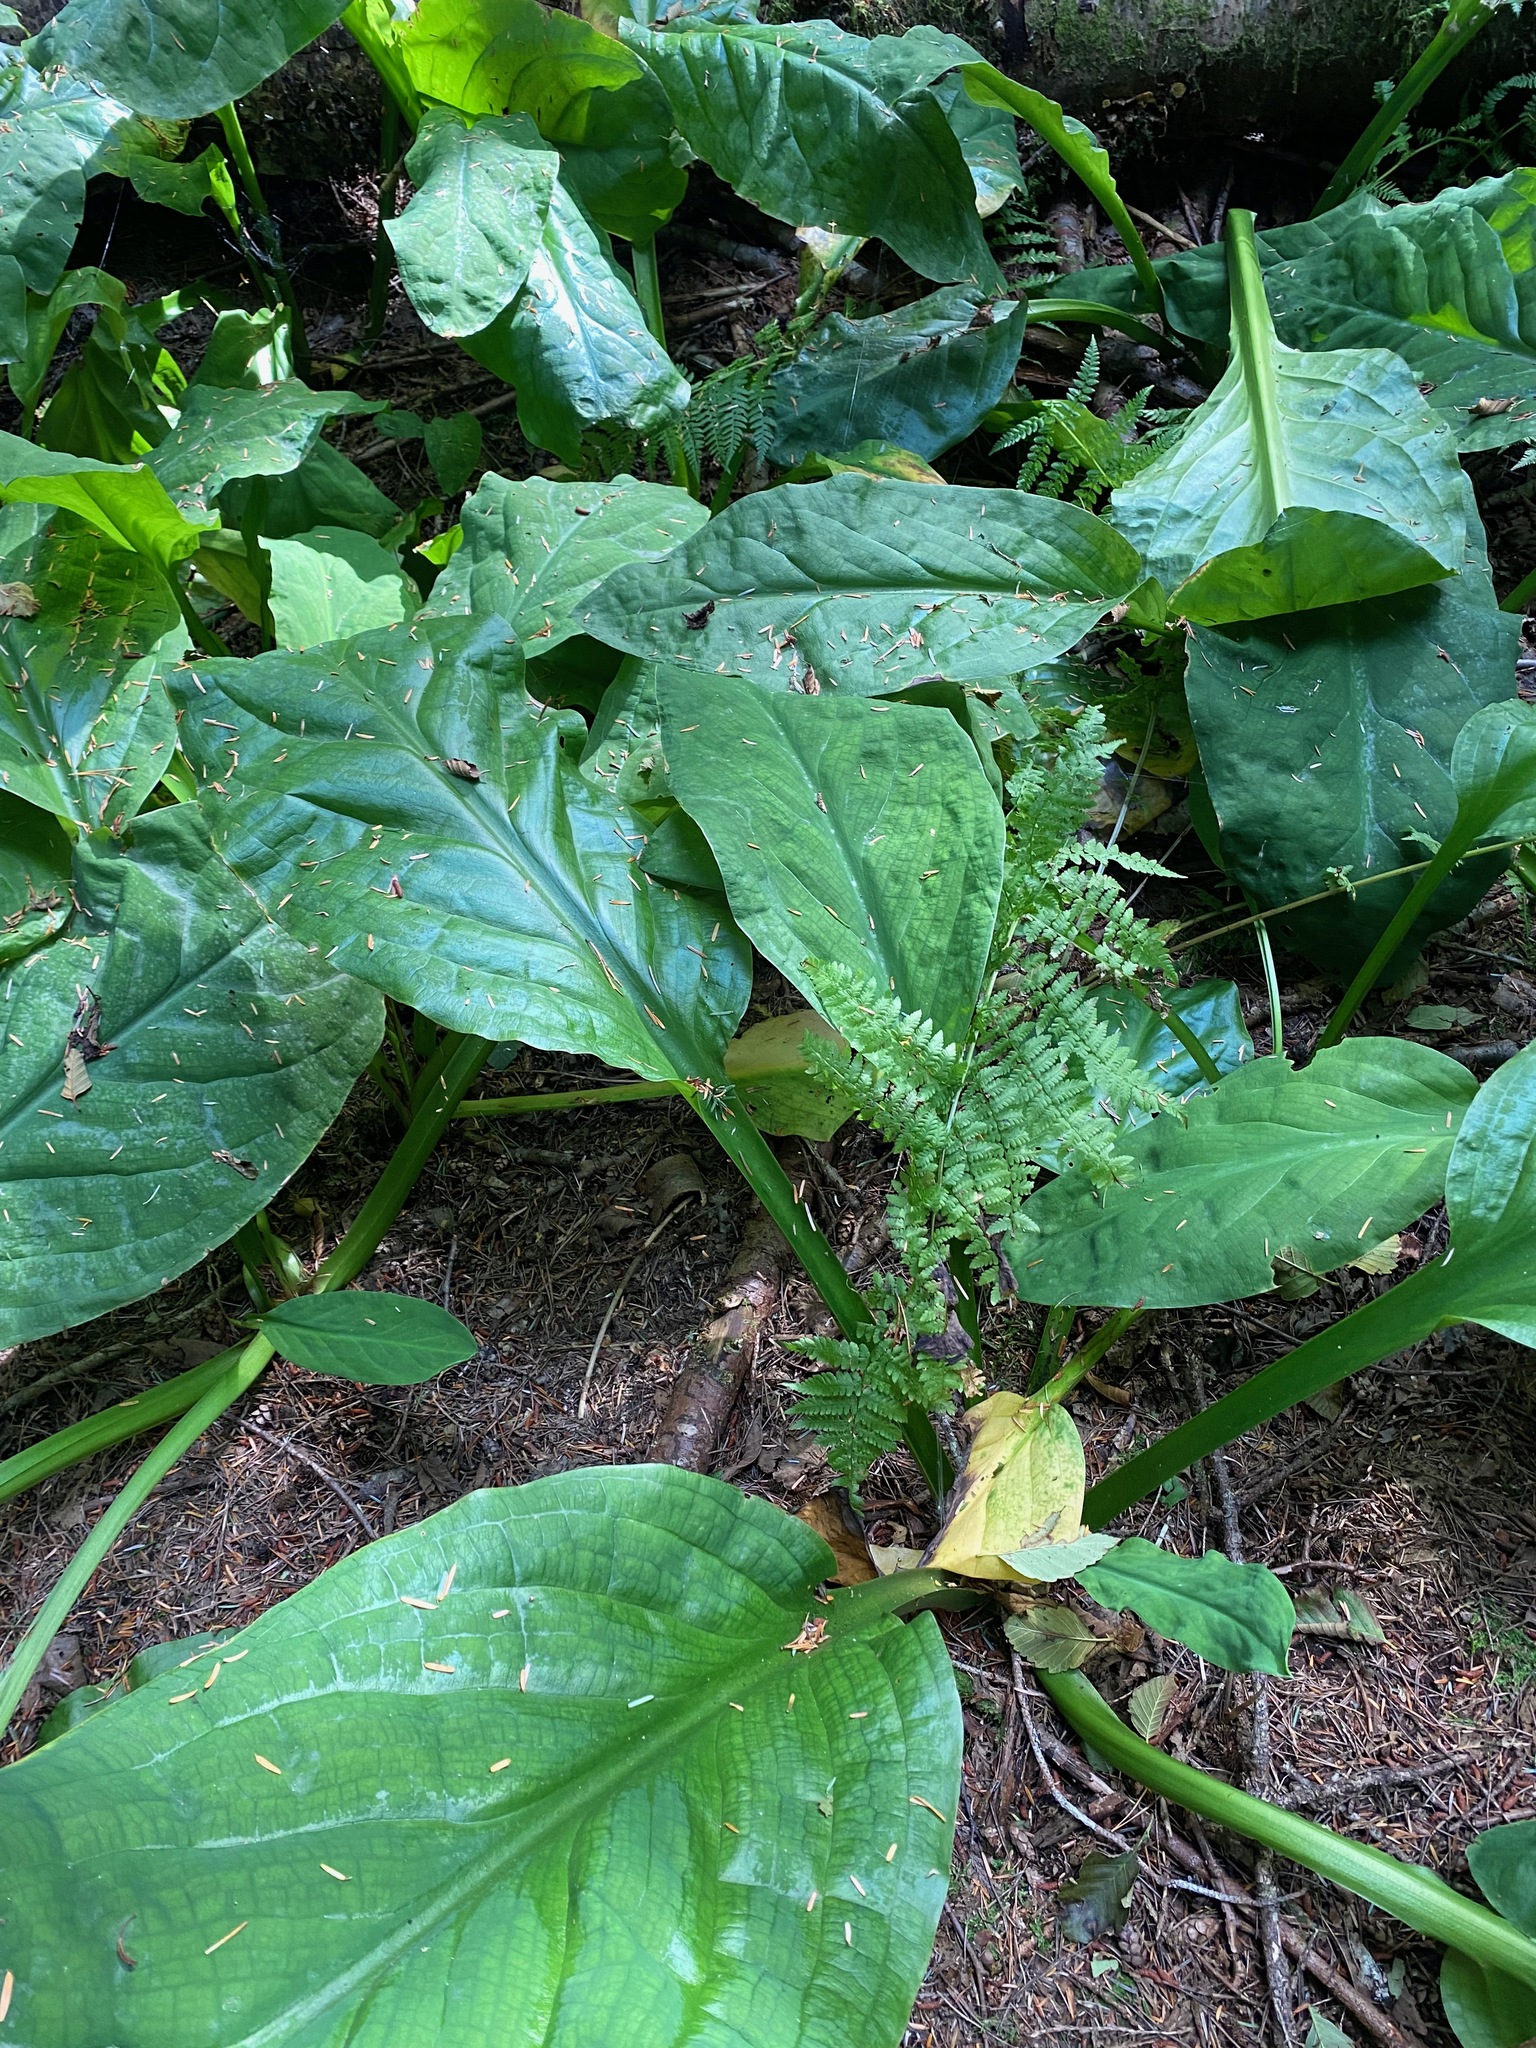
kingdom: Plantae
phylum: Tracheophyta
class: Liliopsida
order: Alismatales
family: Araceae
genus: Lysichiton
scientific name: Lysichiton americanus
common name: American skunk cabbage
